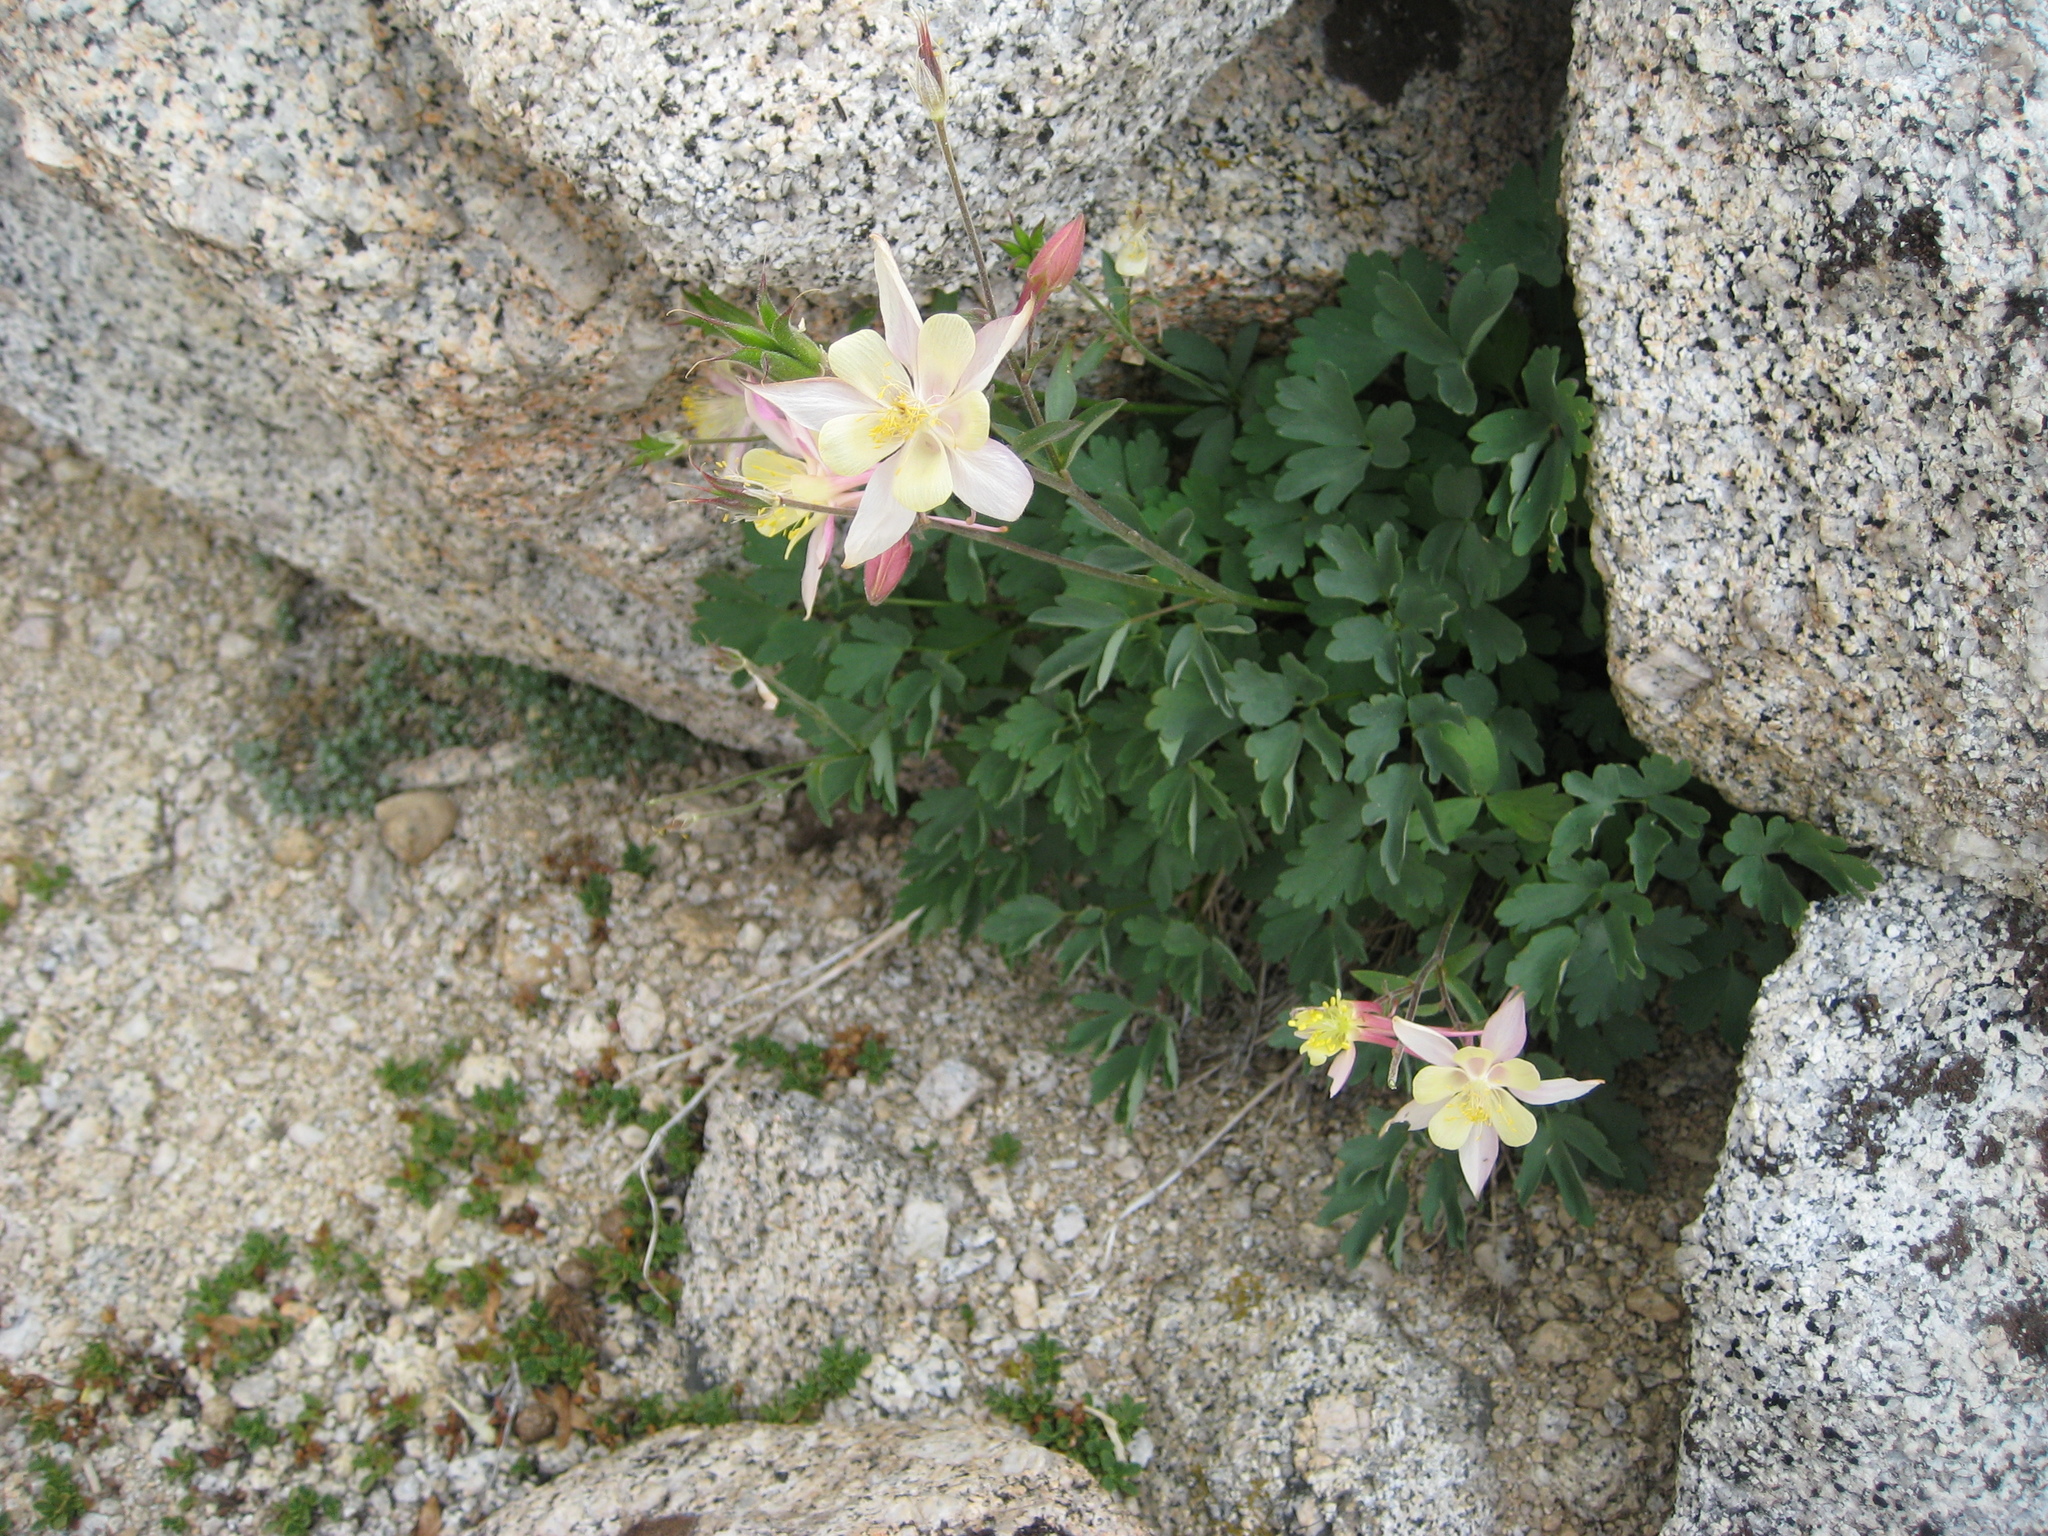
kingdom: Plantae
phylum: Tracheophyta
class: Magnoliopsida
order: Ranunculales
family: Ranunculaceae
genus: Aquilegia
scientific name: Aquilegia pubescens
